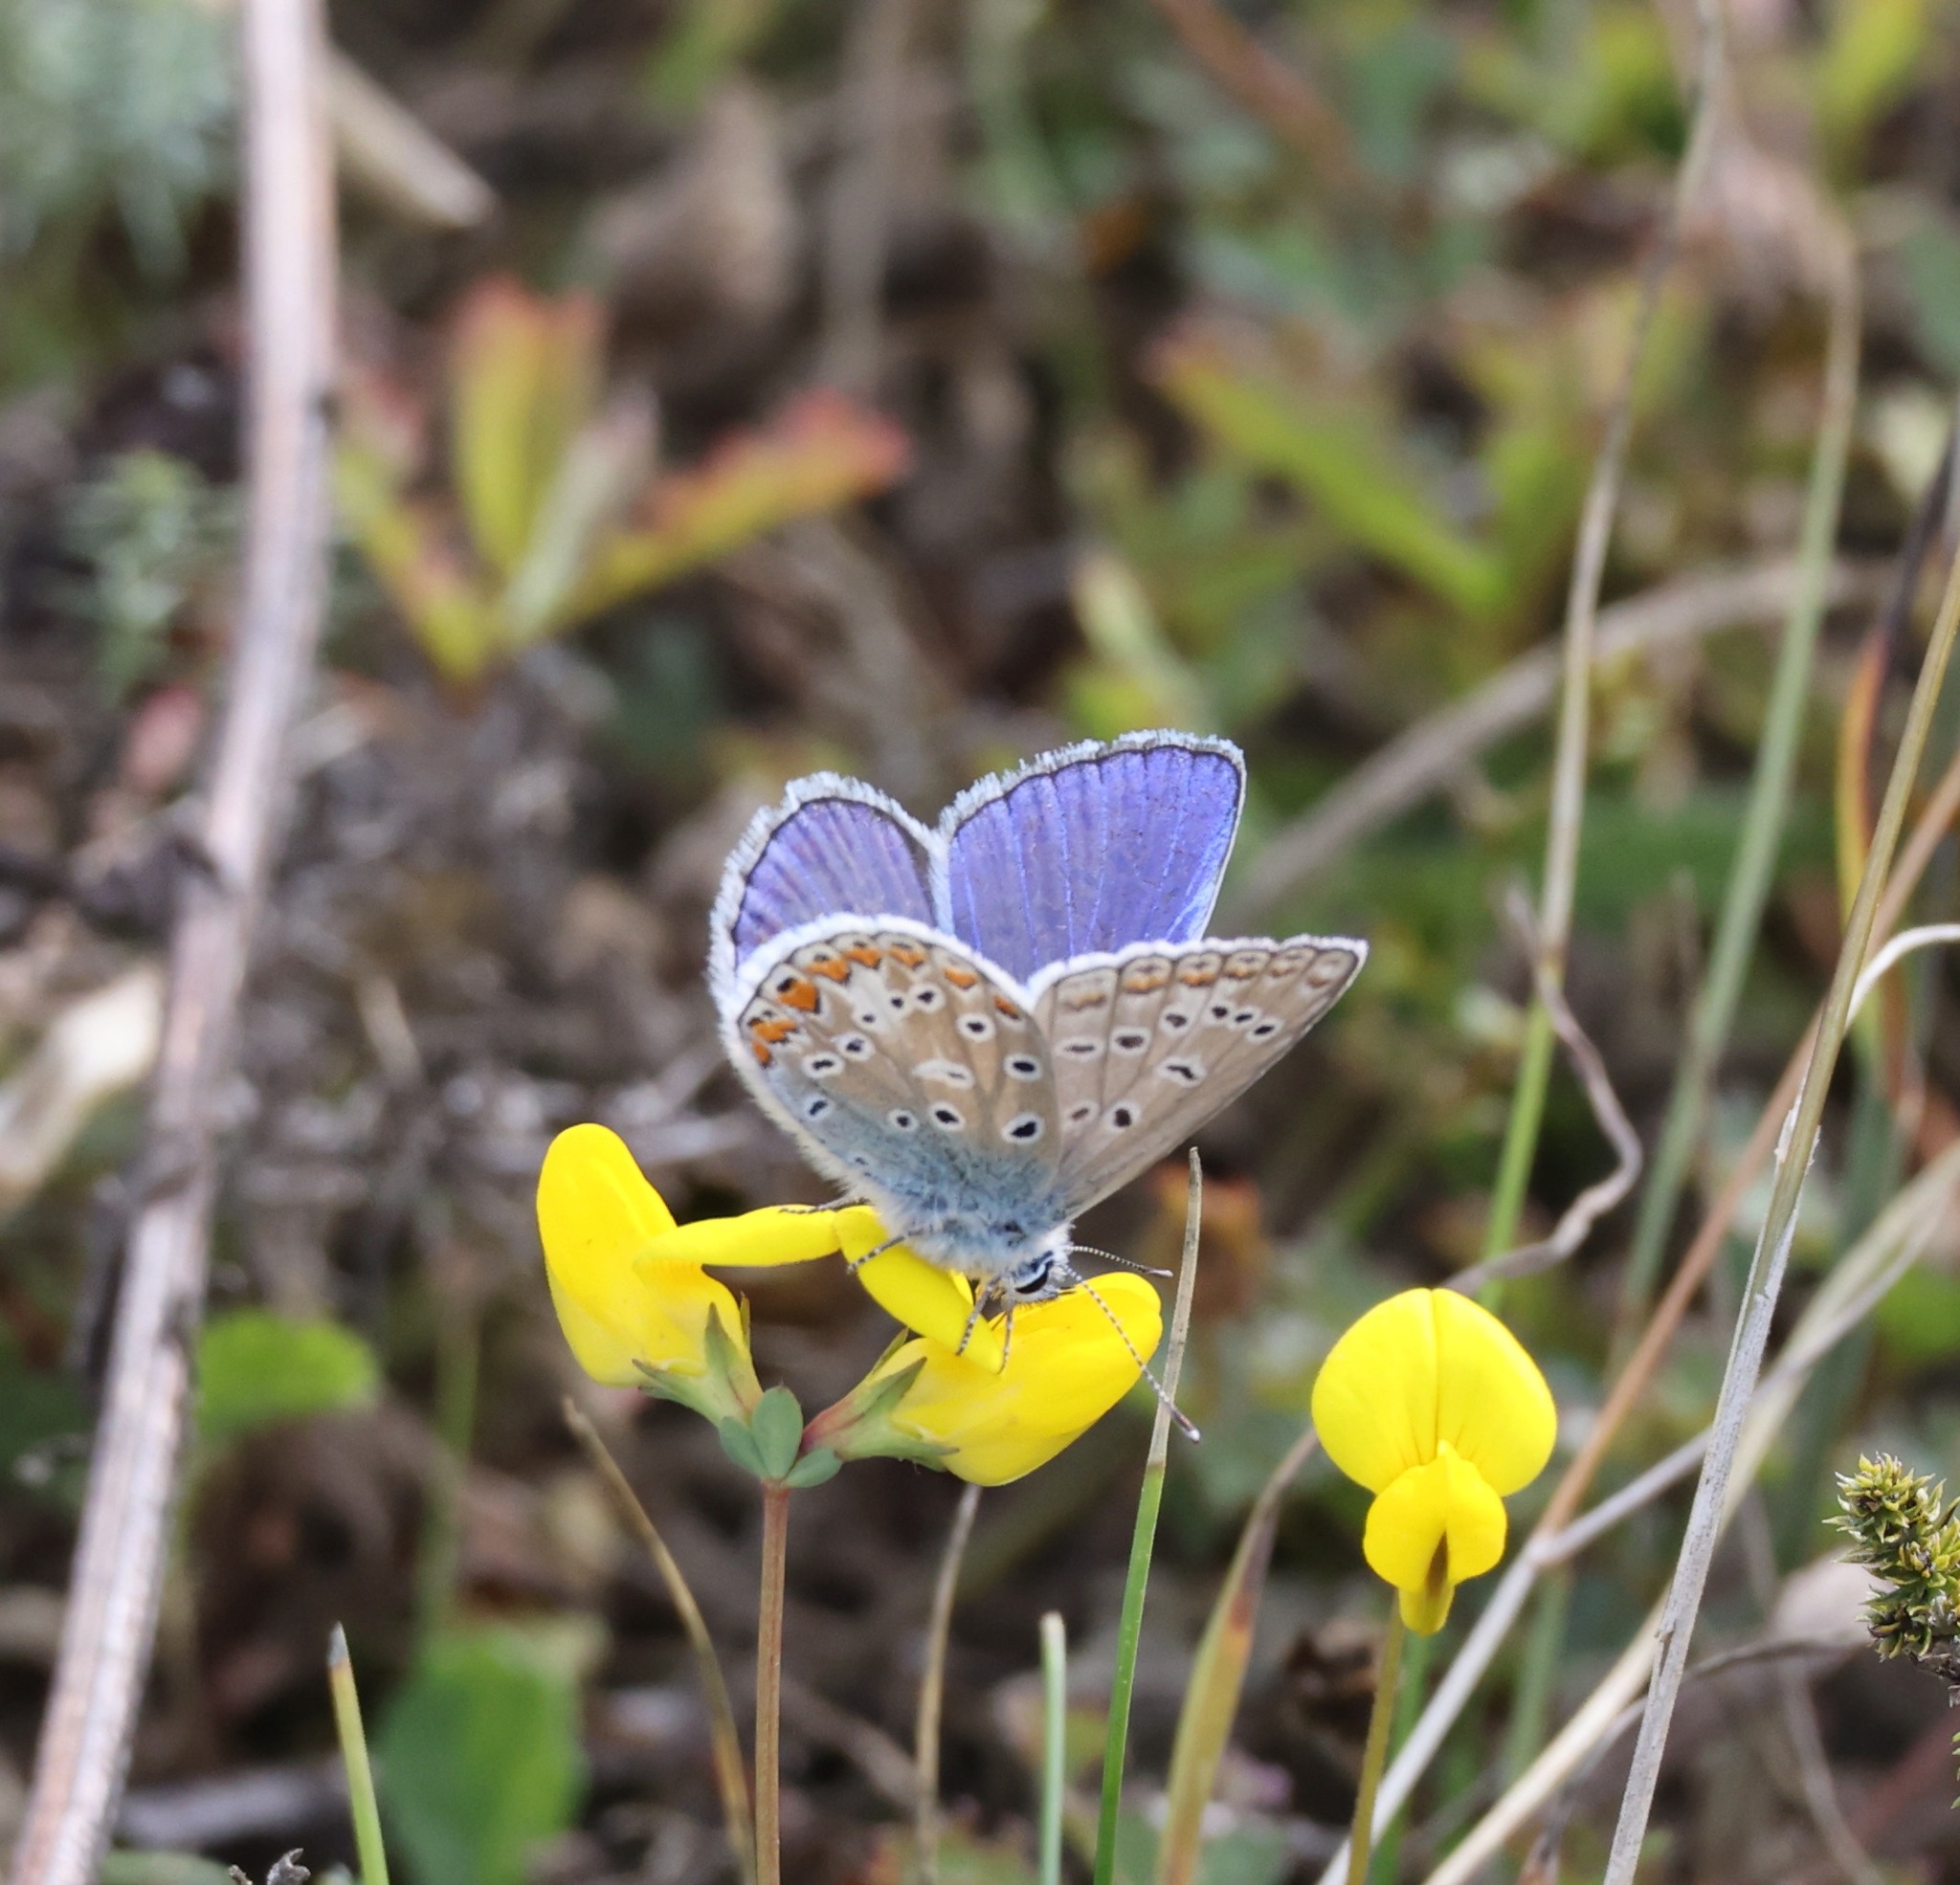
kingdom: Animalia
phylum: Arthropoda
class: Insecta
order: Lepidoptera
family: Lycaenidae
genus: Polyommatus
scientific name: Polyommatus icarus
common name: Common blue
